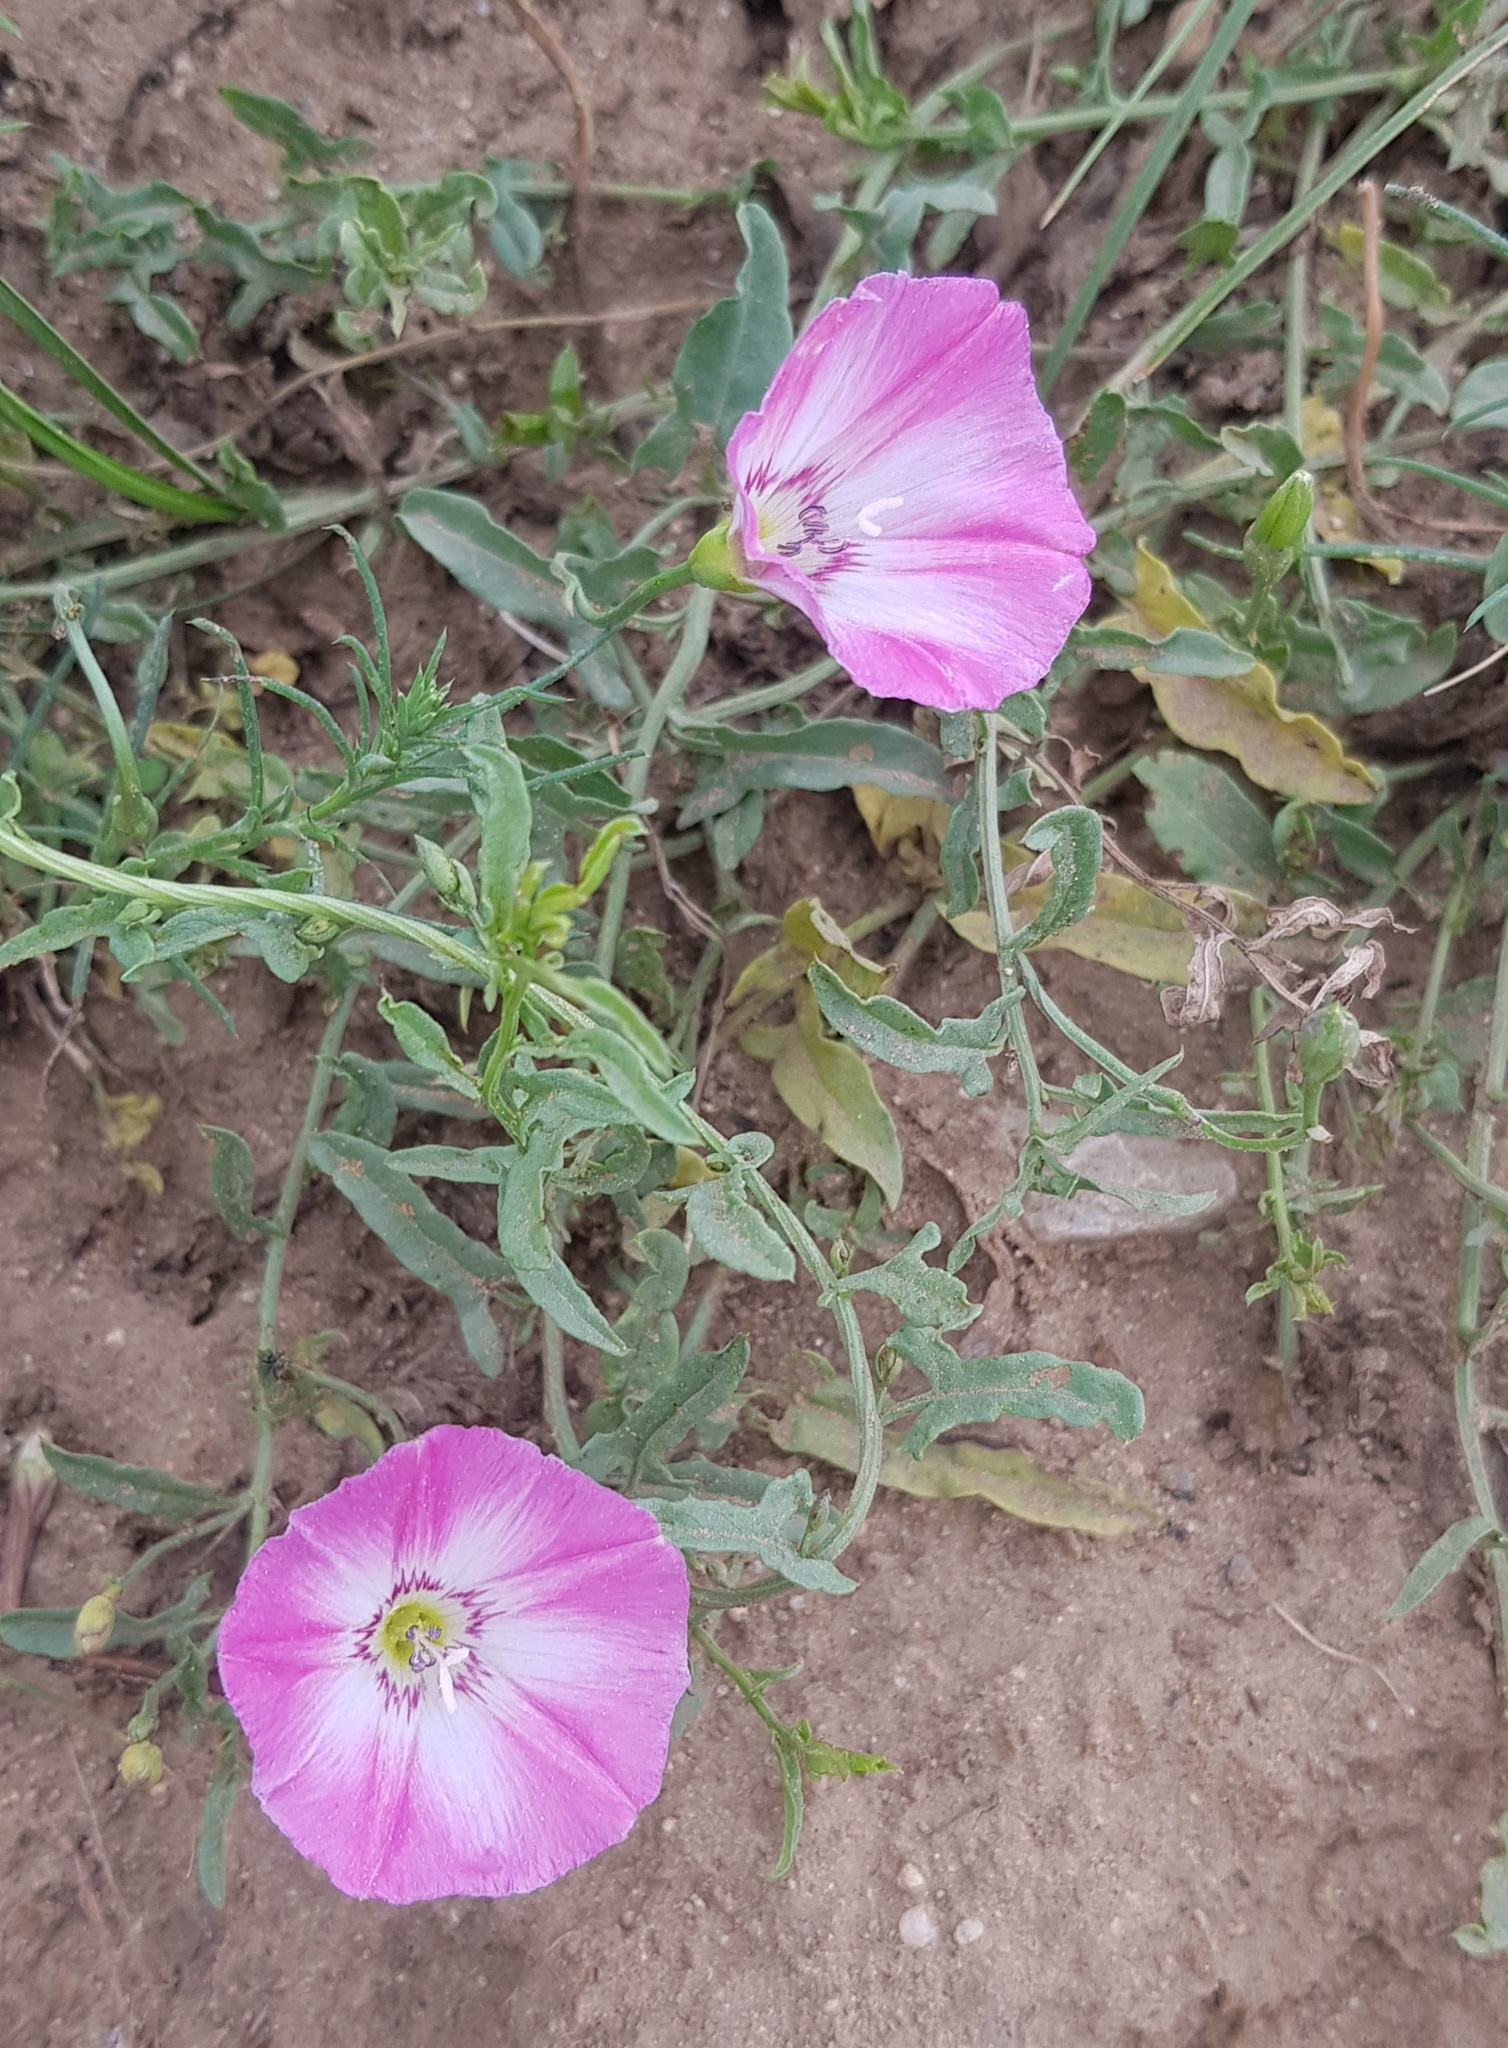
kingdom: Plantae
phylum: Tracheophyta
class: Magnoliopsida
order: Solanales
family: Convolvulaceae
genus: Convolvulus
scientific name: Convolvulus arvensis
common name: Field bindweed
